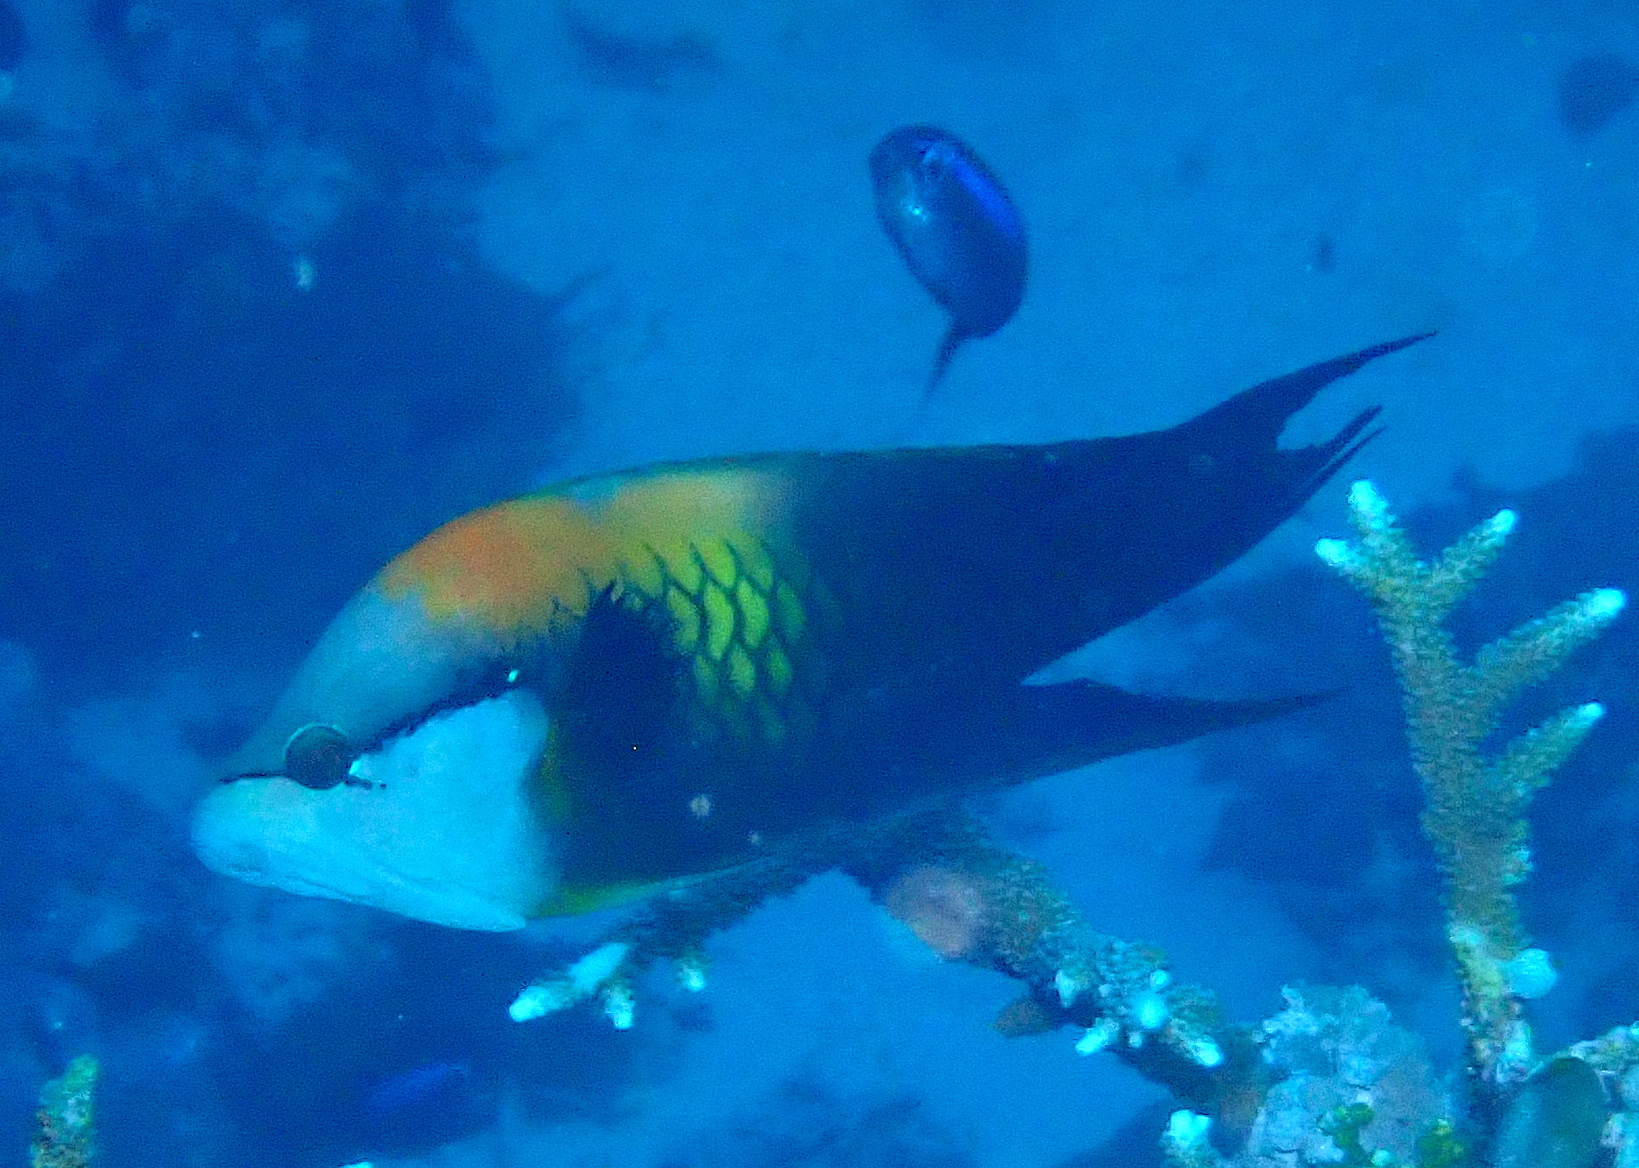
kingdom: Animalia
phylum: Chordata
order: Perciformes
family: Labridae
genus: Epibulus
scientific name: Epibulus insidiator
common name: Slingjaw wrasse
